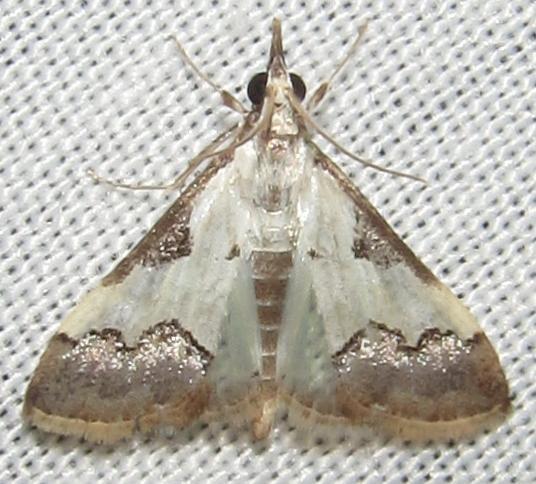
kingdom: Animalia
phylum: Arthropoda
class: Insecta
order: Lepidoptera
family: Crambidae
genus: Autocharis
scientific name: Autocharis jacobsalis
